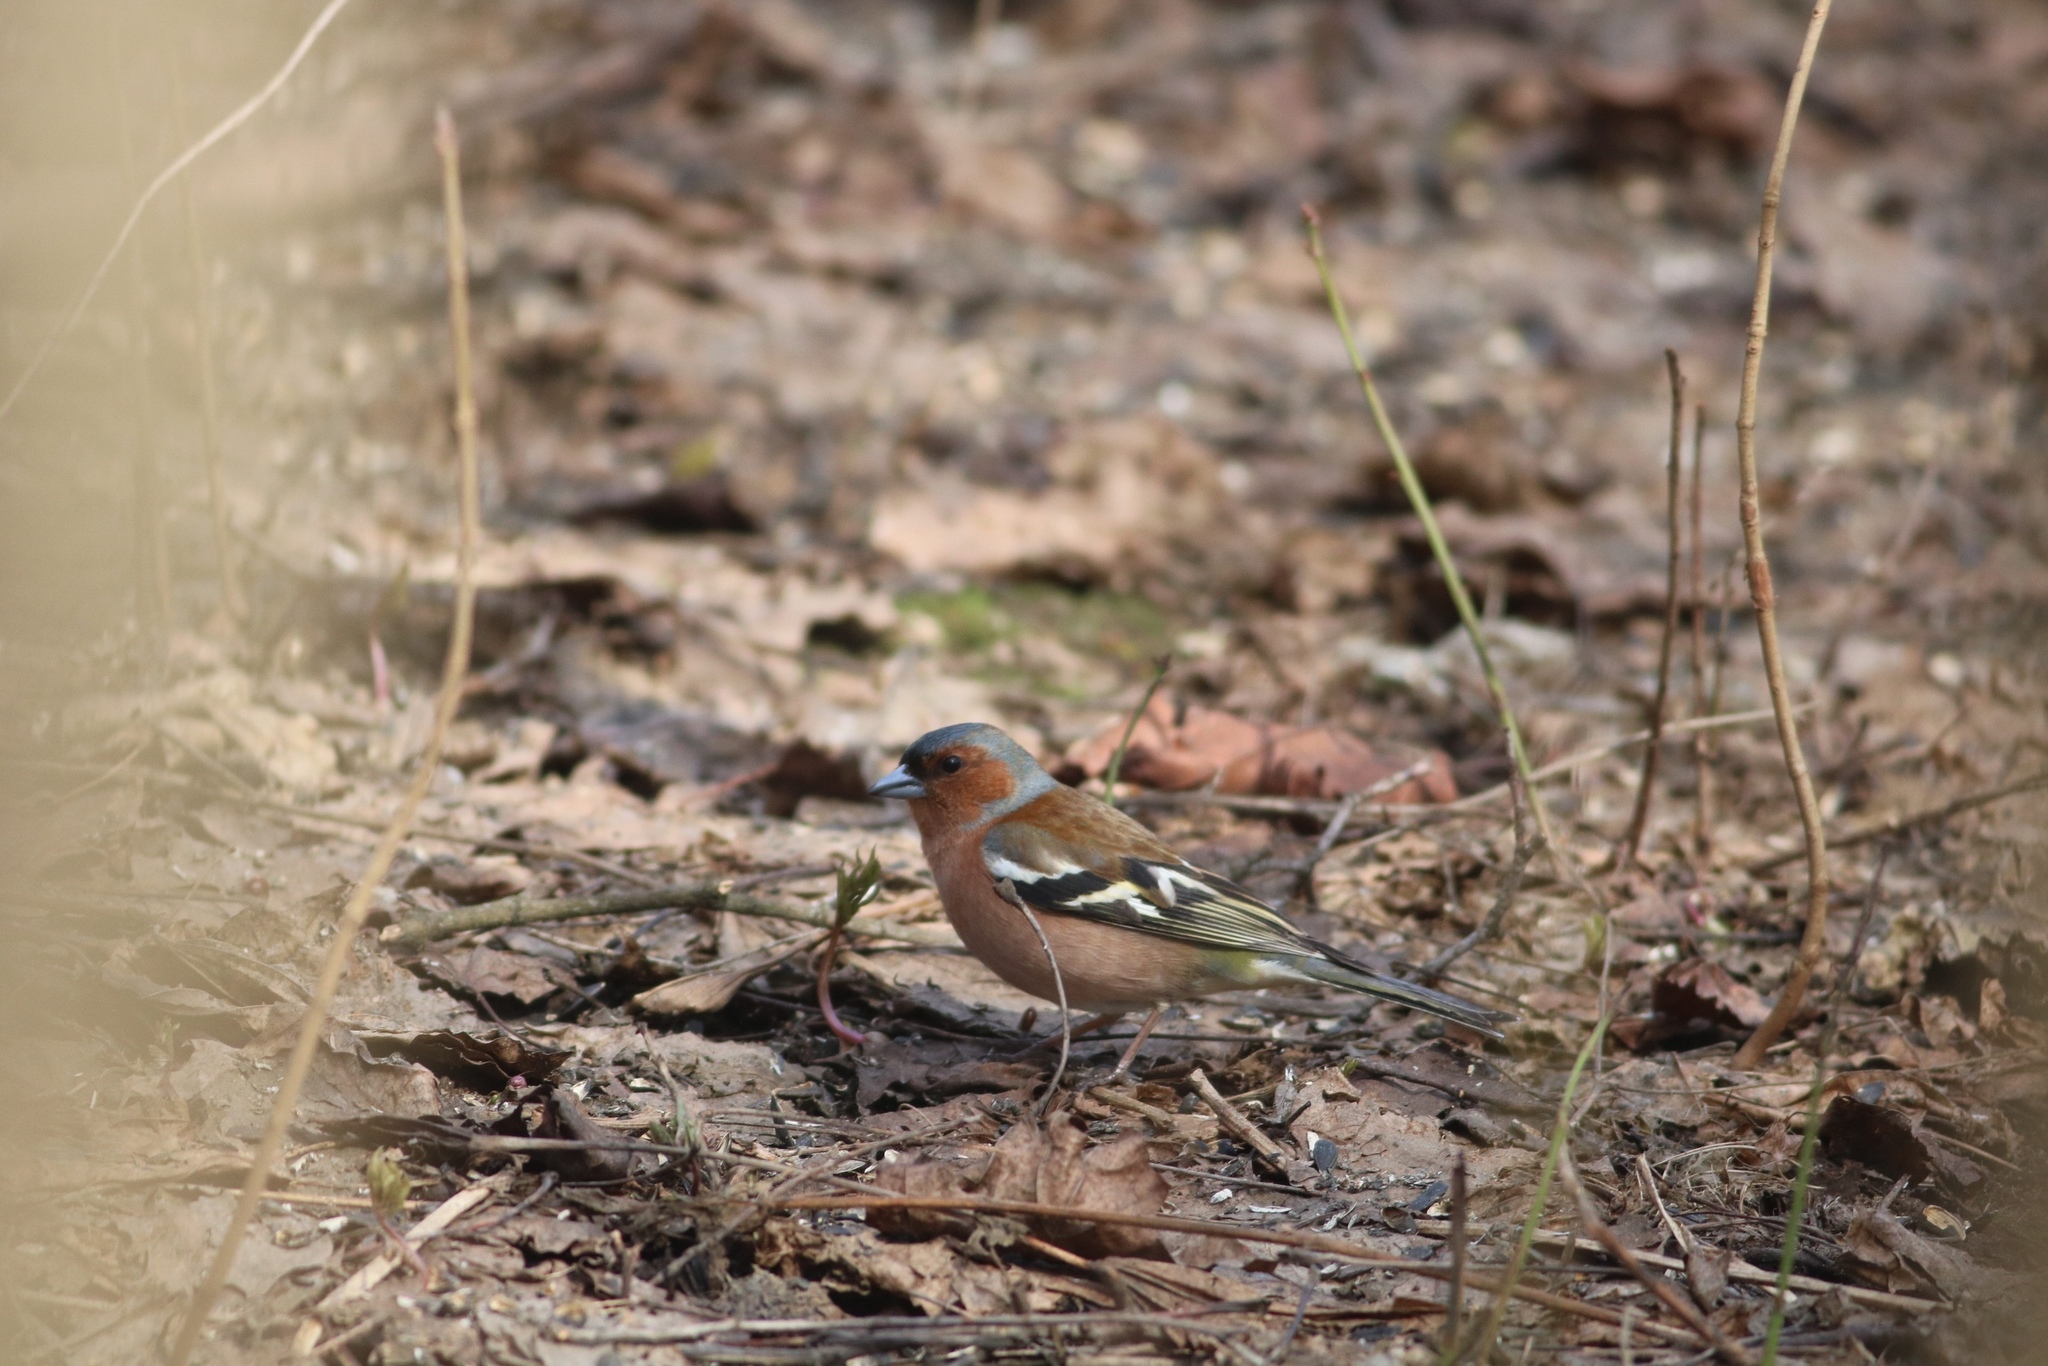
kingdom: Animalia
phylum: Chordata
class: Aves
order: Passeriformes
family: Fringillidae
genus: Fringilla
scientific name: Fringilla coelebs
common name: Common chaffinch
